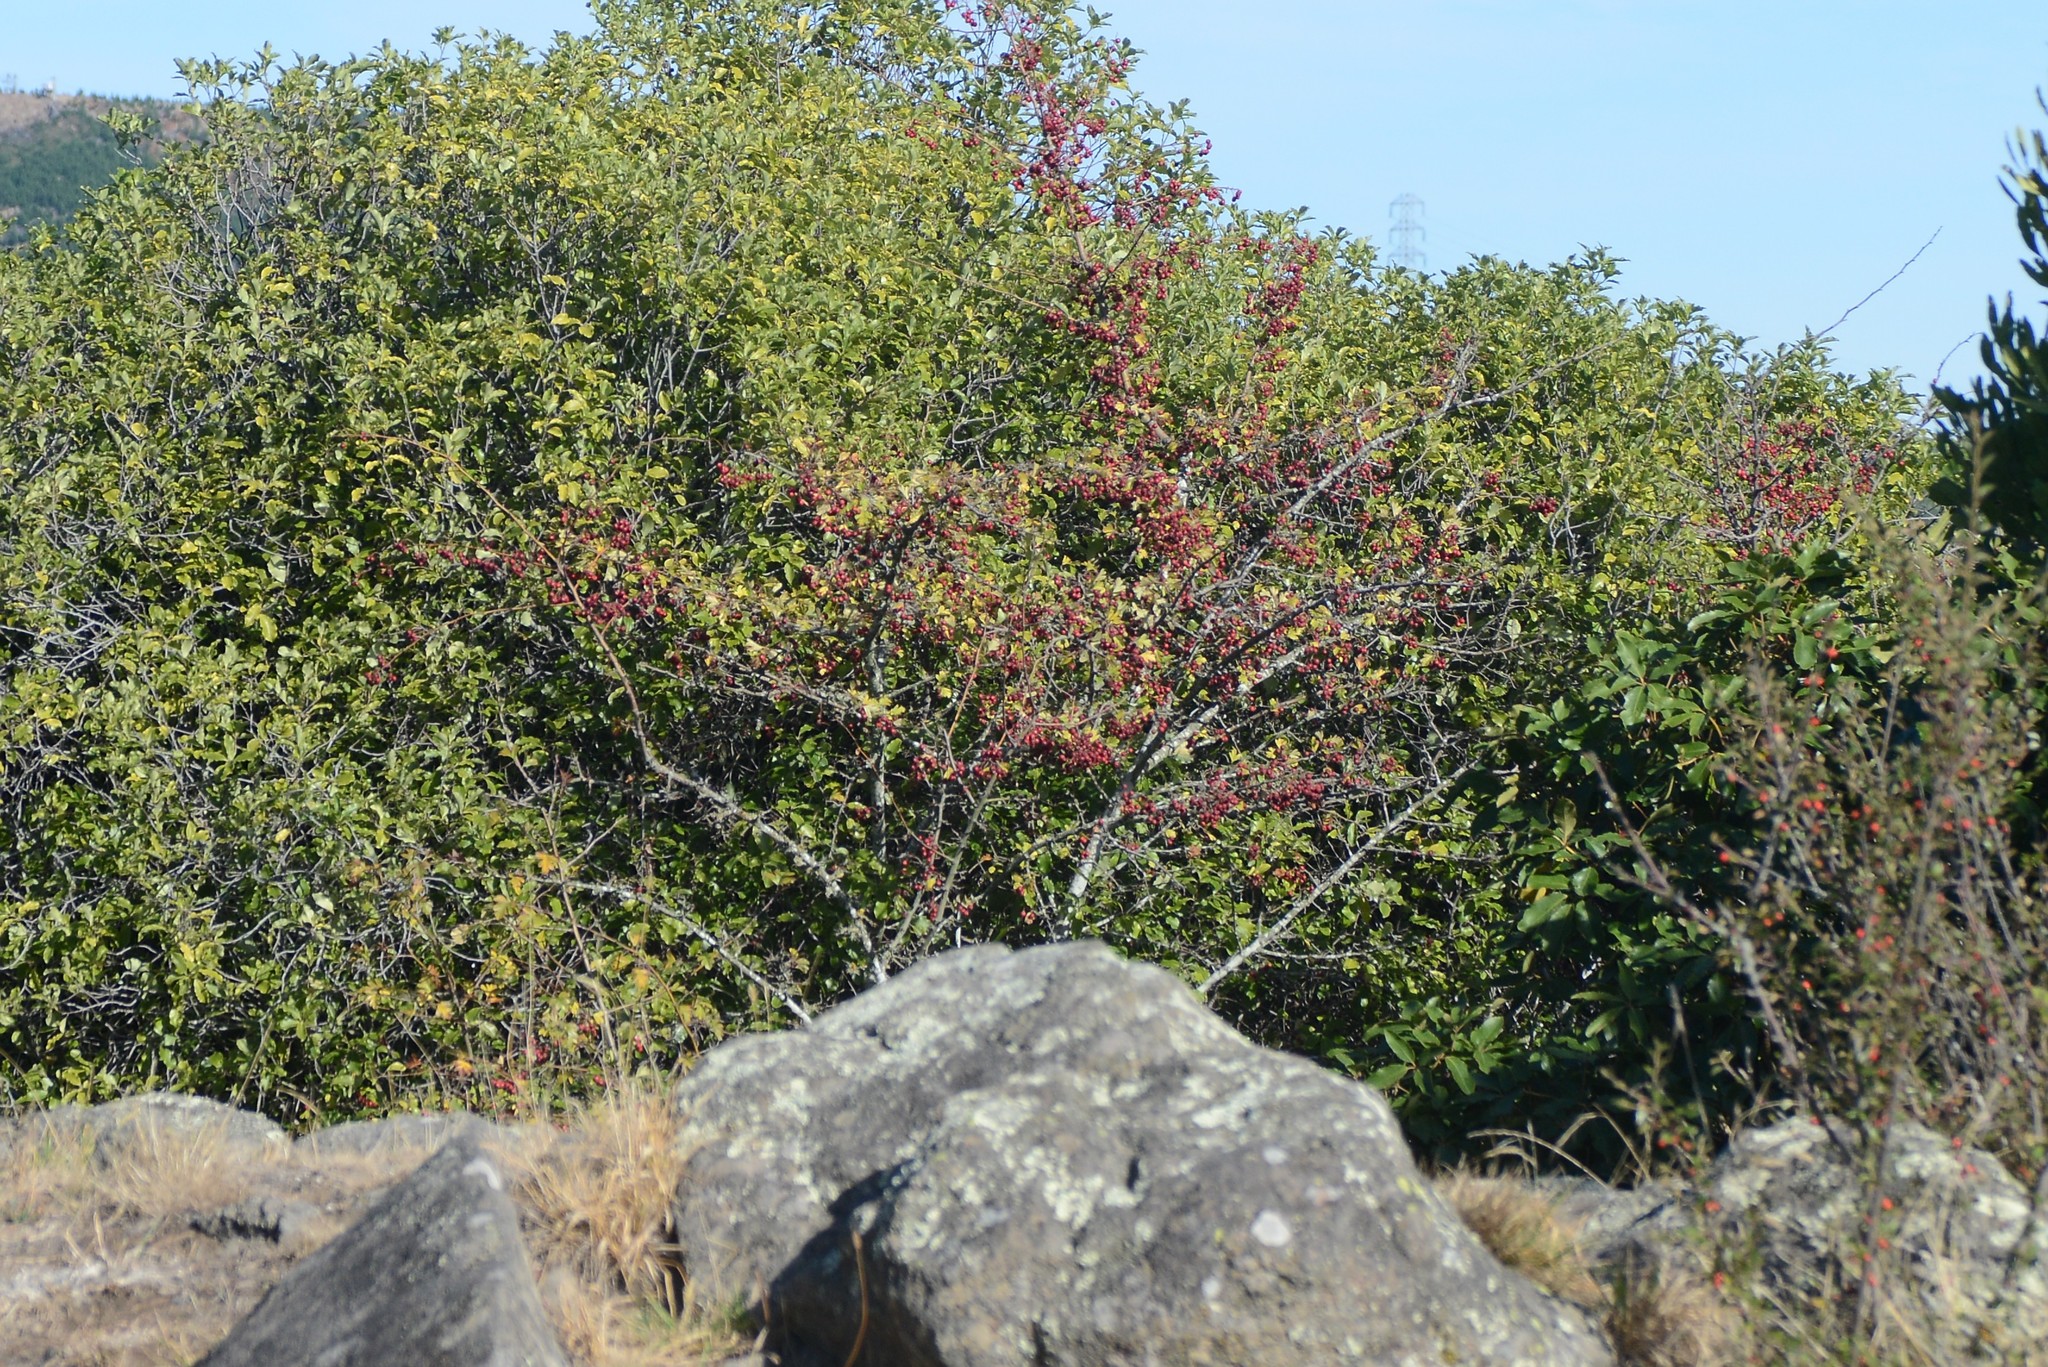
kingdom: Plantae
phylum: Tracheophyta
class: Magnoliopsida
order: Rosales
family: Rosaceae
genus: Crataegus
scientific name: Crataegus monogyna
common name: Hawthorn
